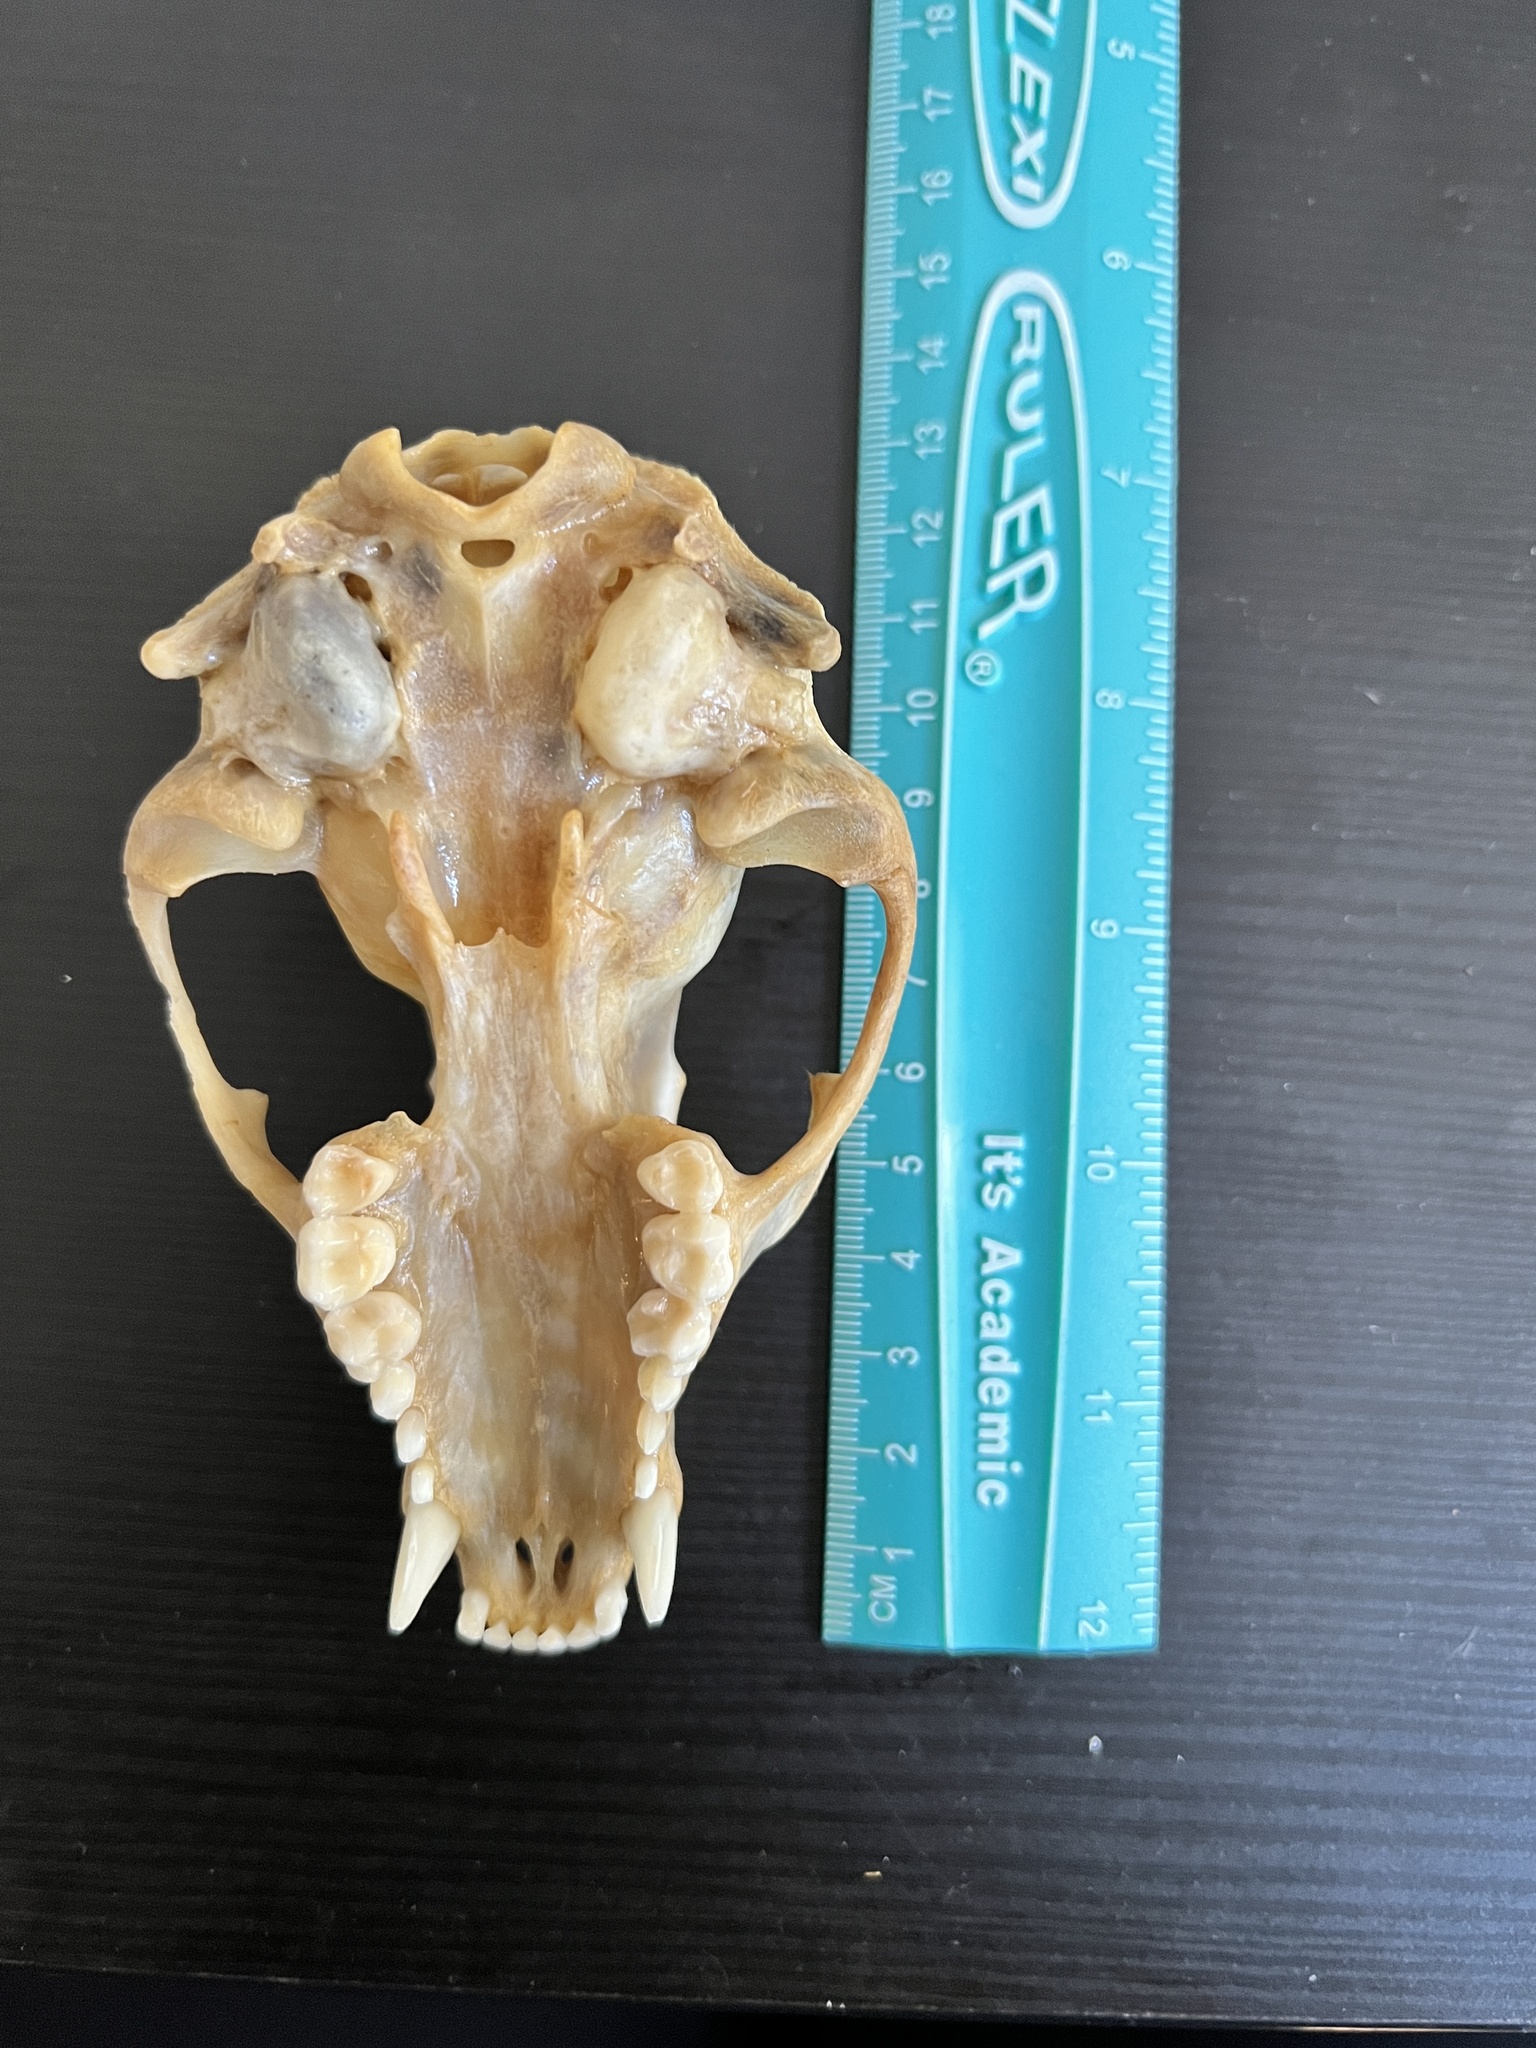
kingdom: Animalia
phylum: Chordata
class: Mammalia
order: Carnivora
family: Procyonidae
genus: Procyon
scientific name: Procyon lotor
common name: Raccoon
